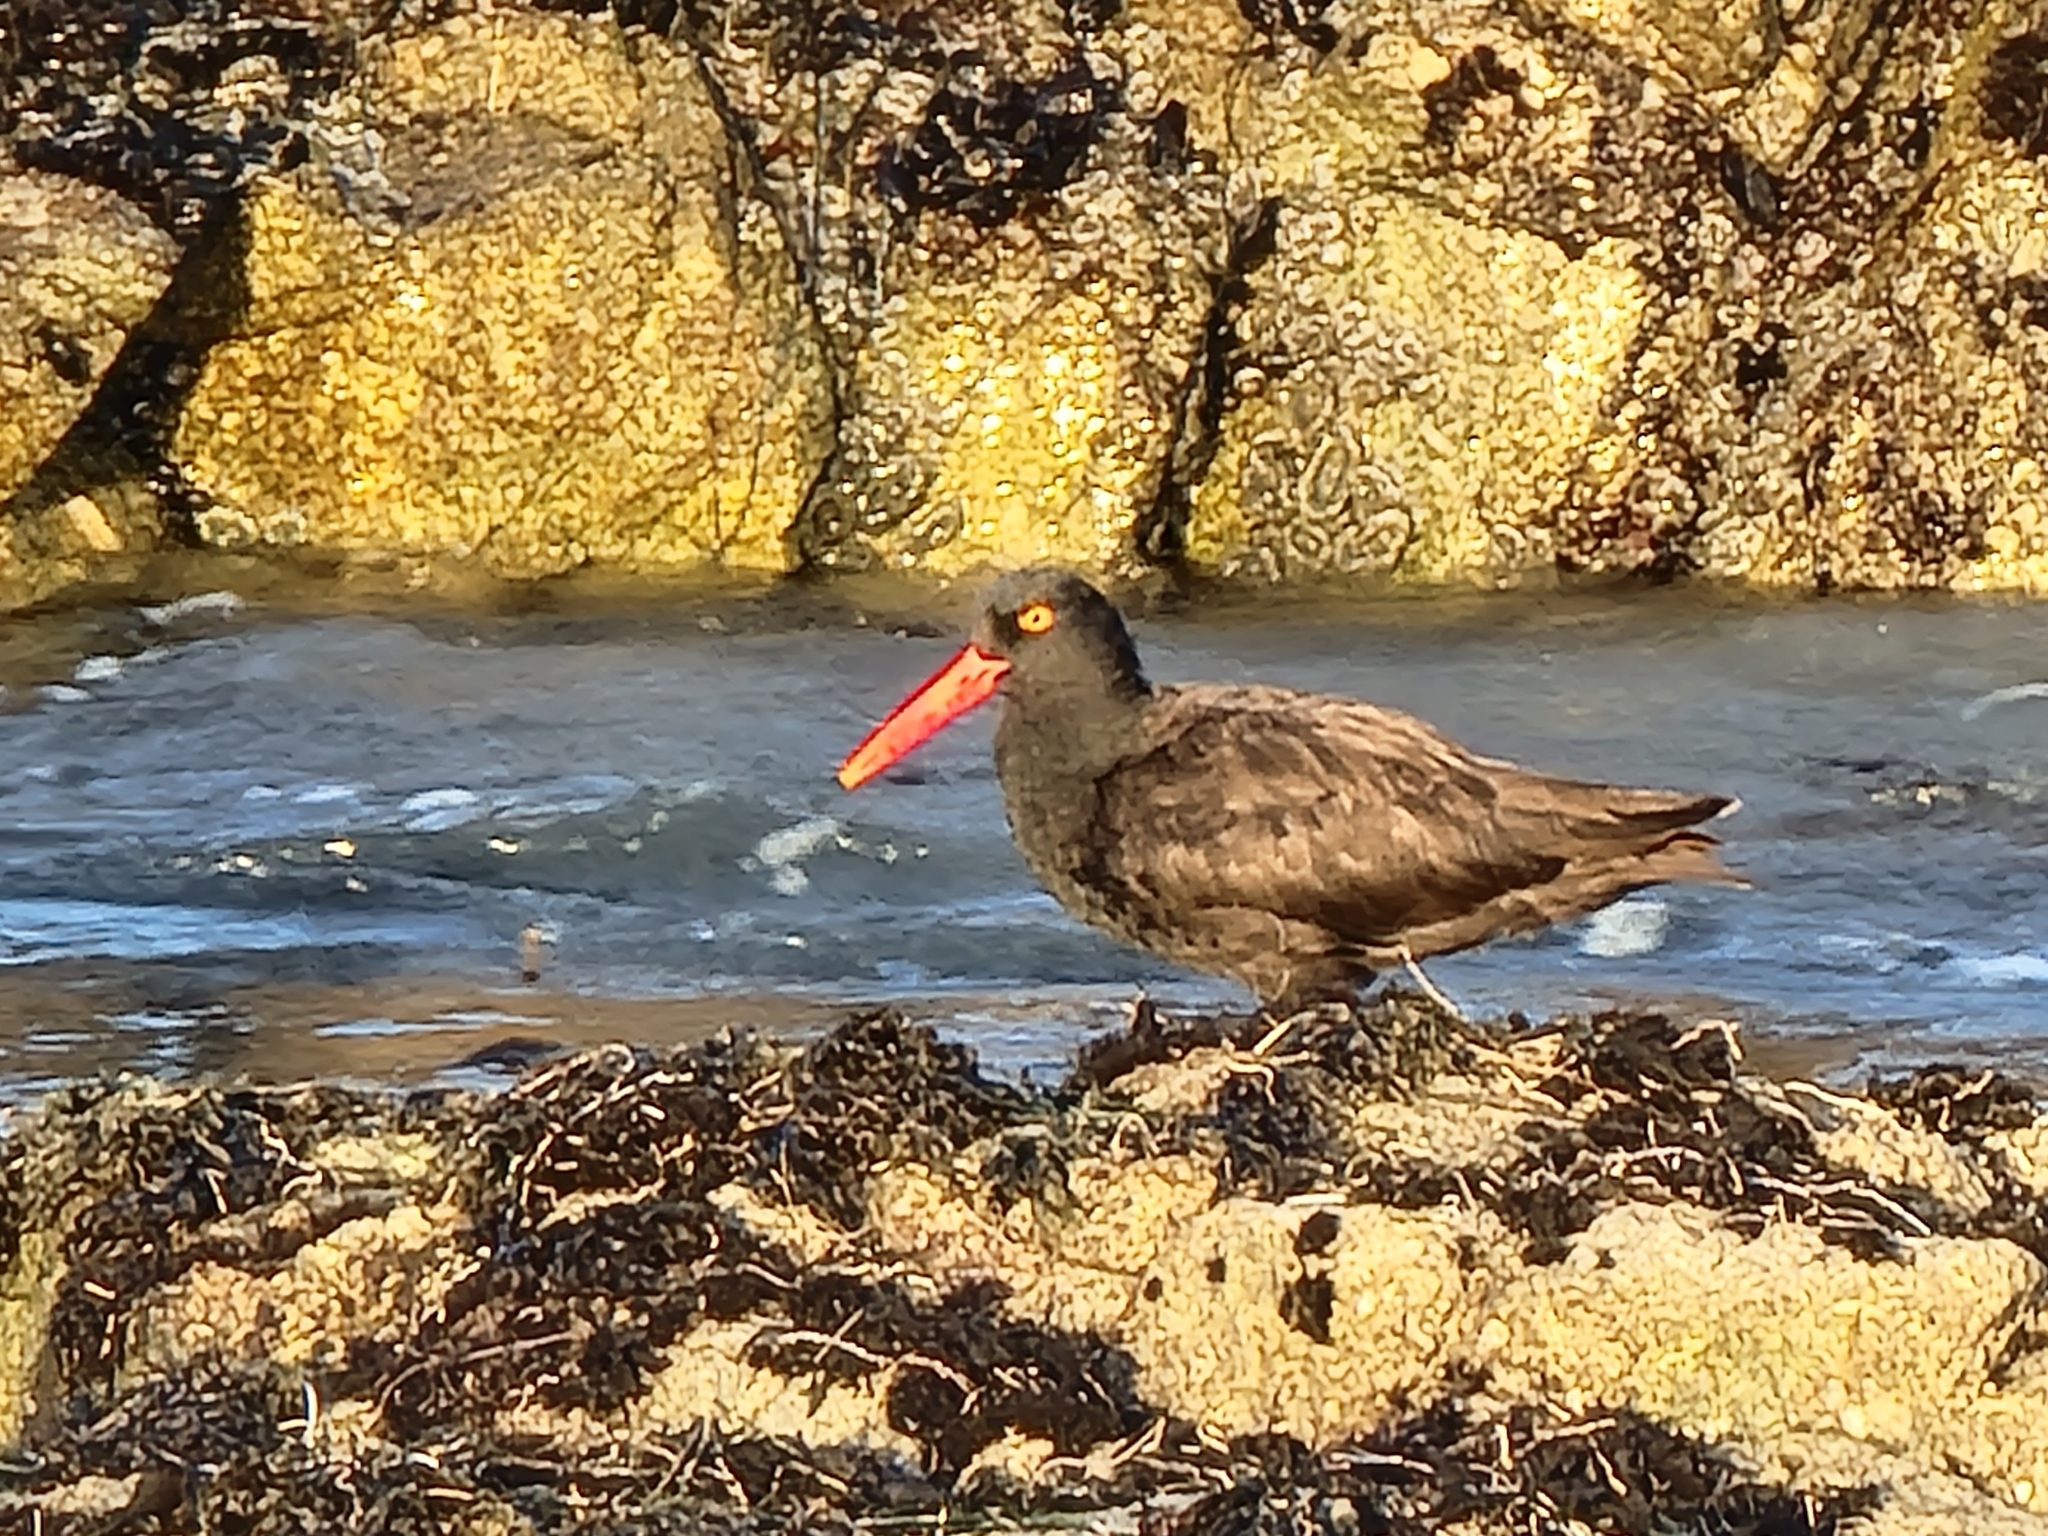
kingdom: Animalia
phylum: Chordata
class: Aves
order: Charadriiformes
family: Haematopodidae
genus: Haematopus
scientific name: Haematopus bachmani
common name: Black oystercatcher
